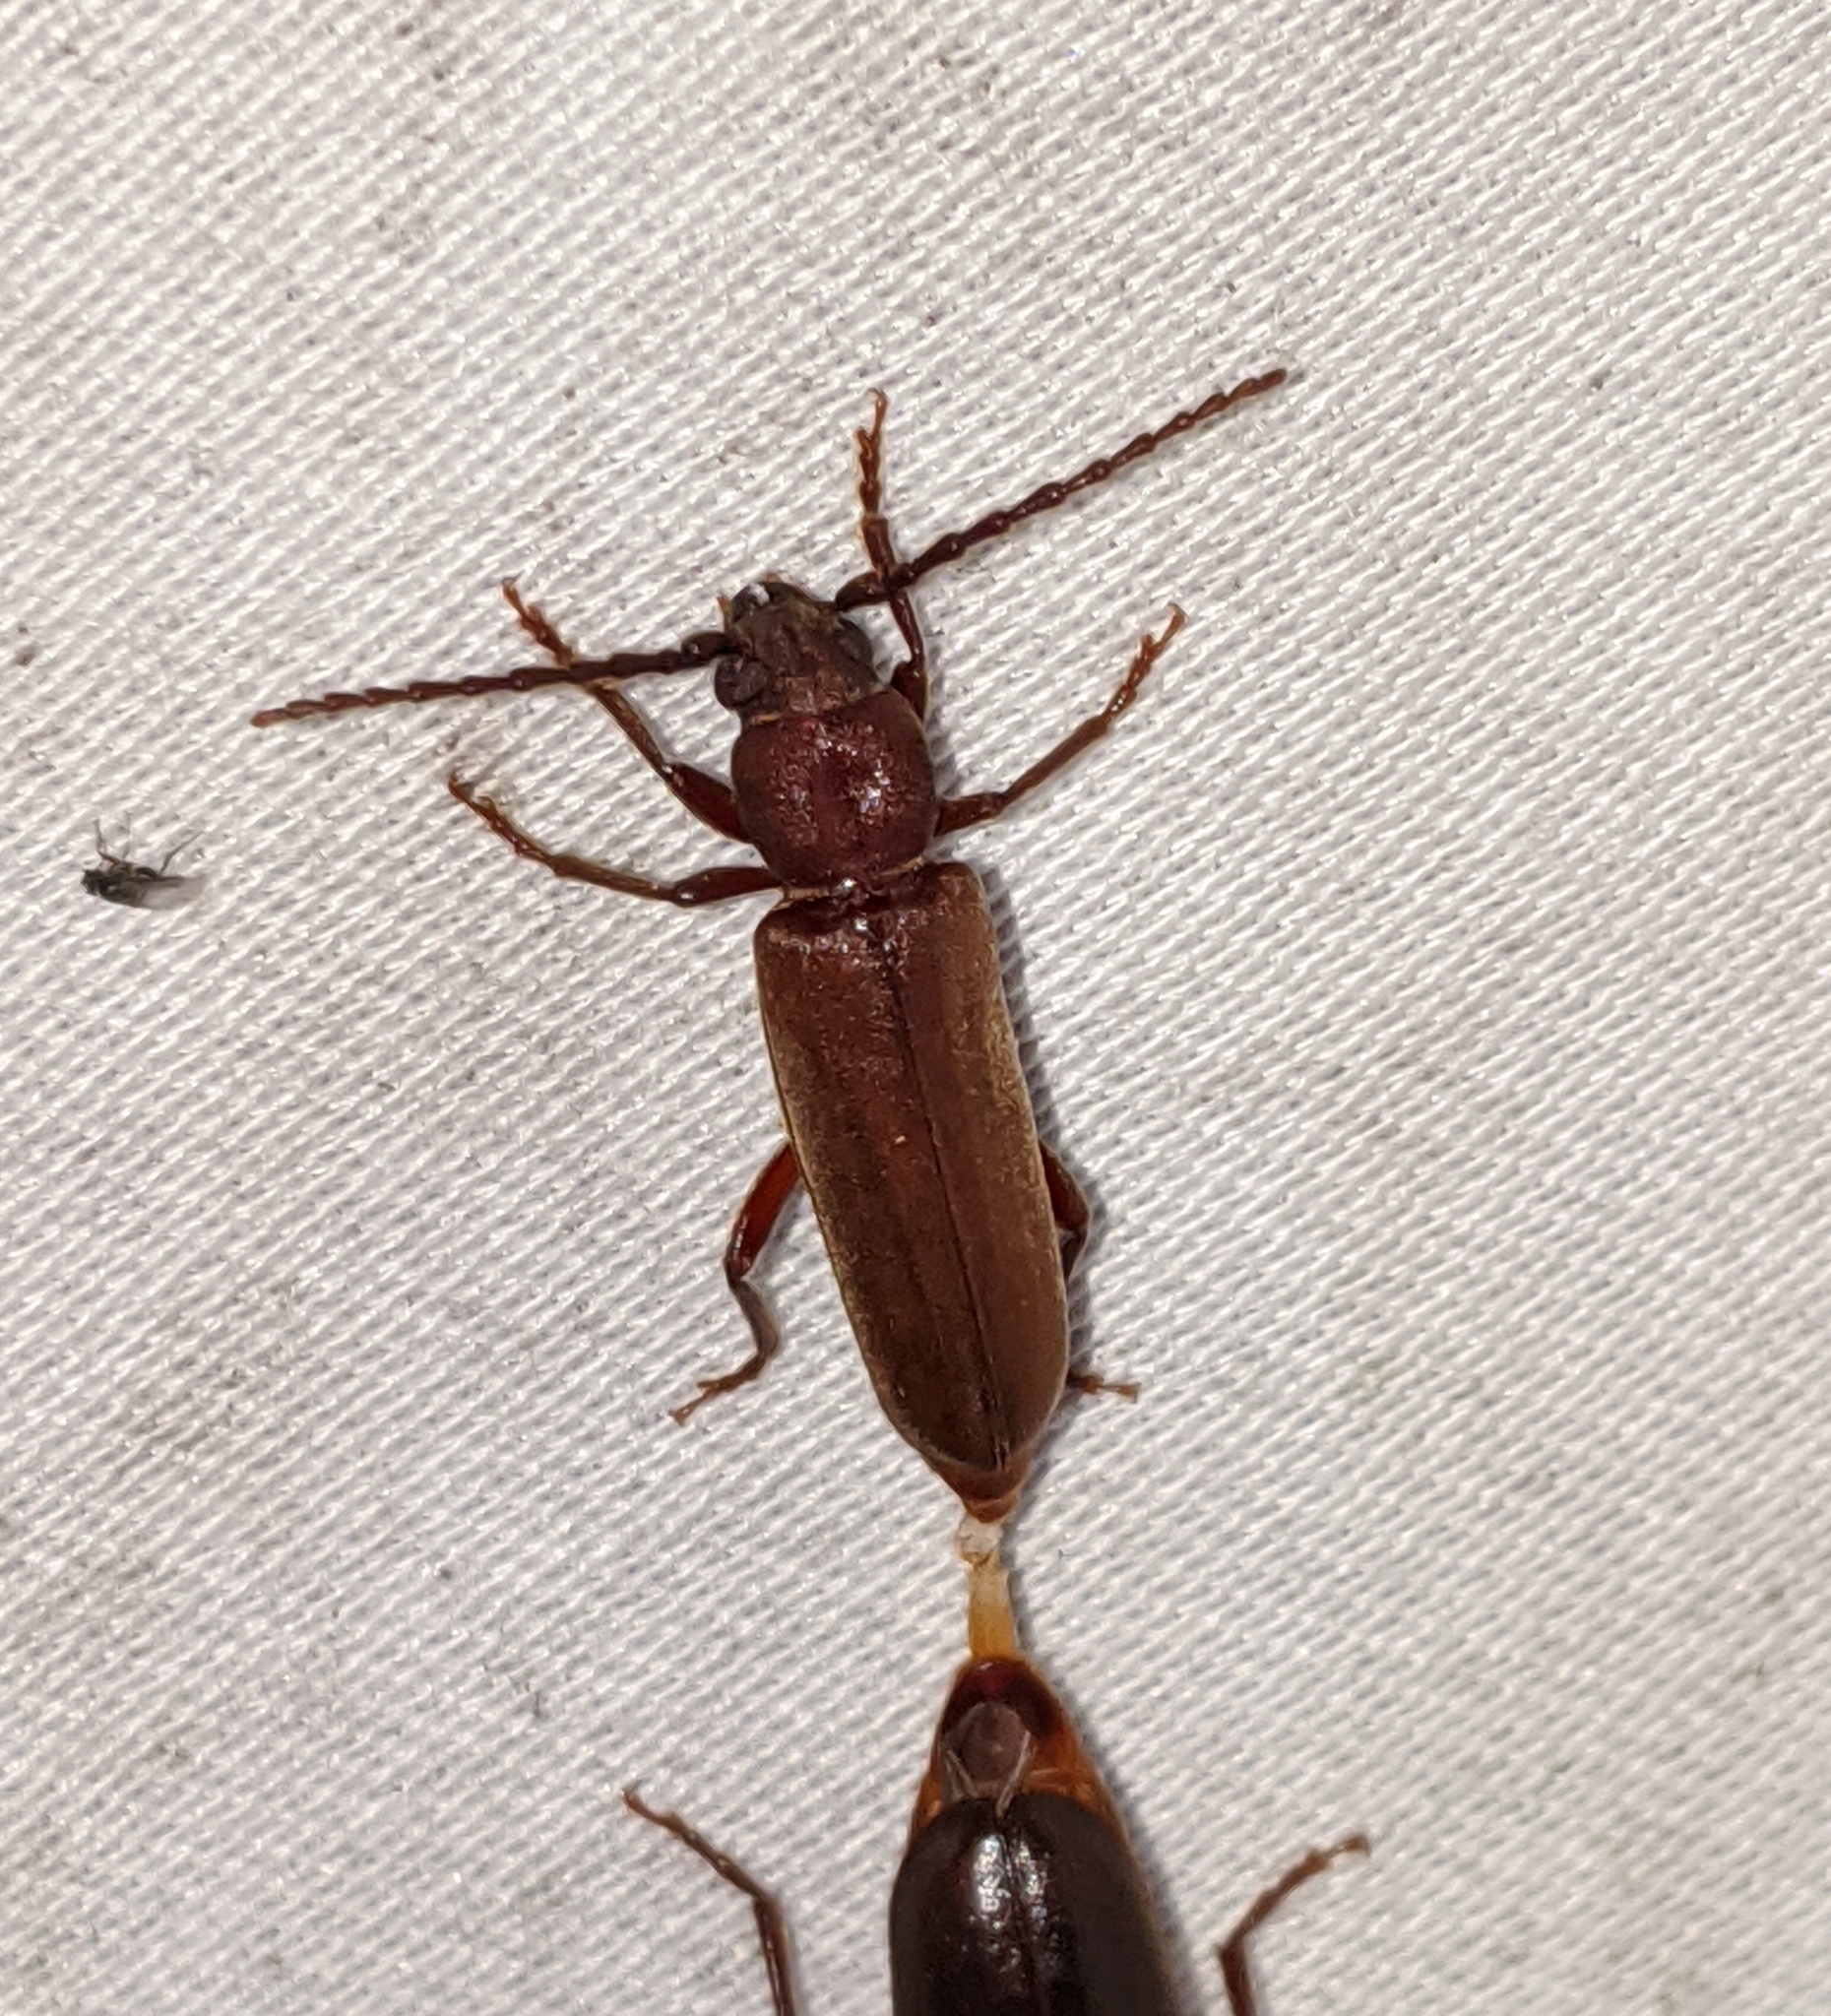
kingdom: Animalia
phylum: Arthropoda
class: Insecta
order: Coleoptera
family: Cerambycidae
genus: Megasemum
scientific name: Megasemum asperum
